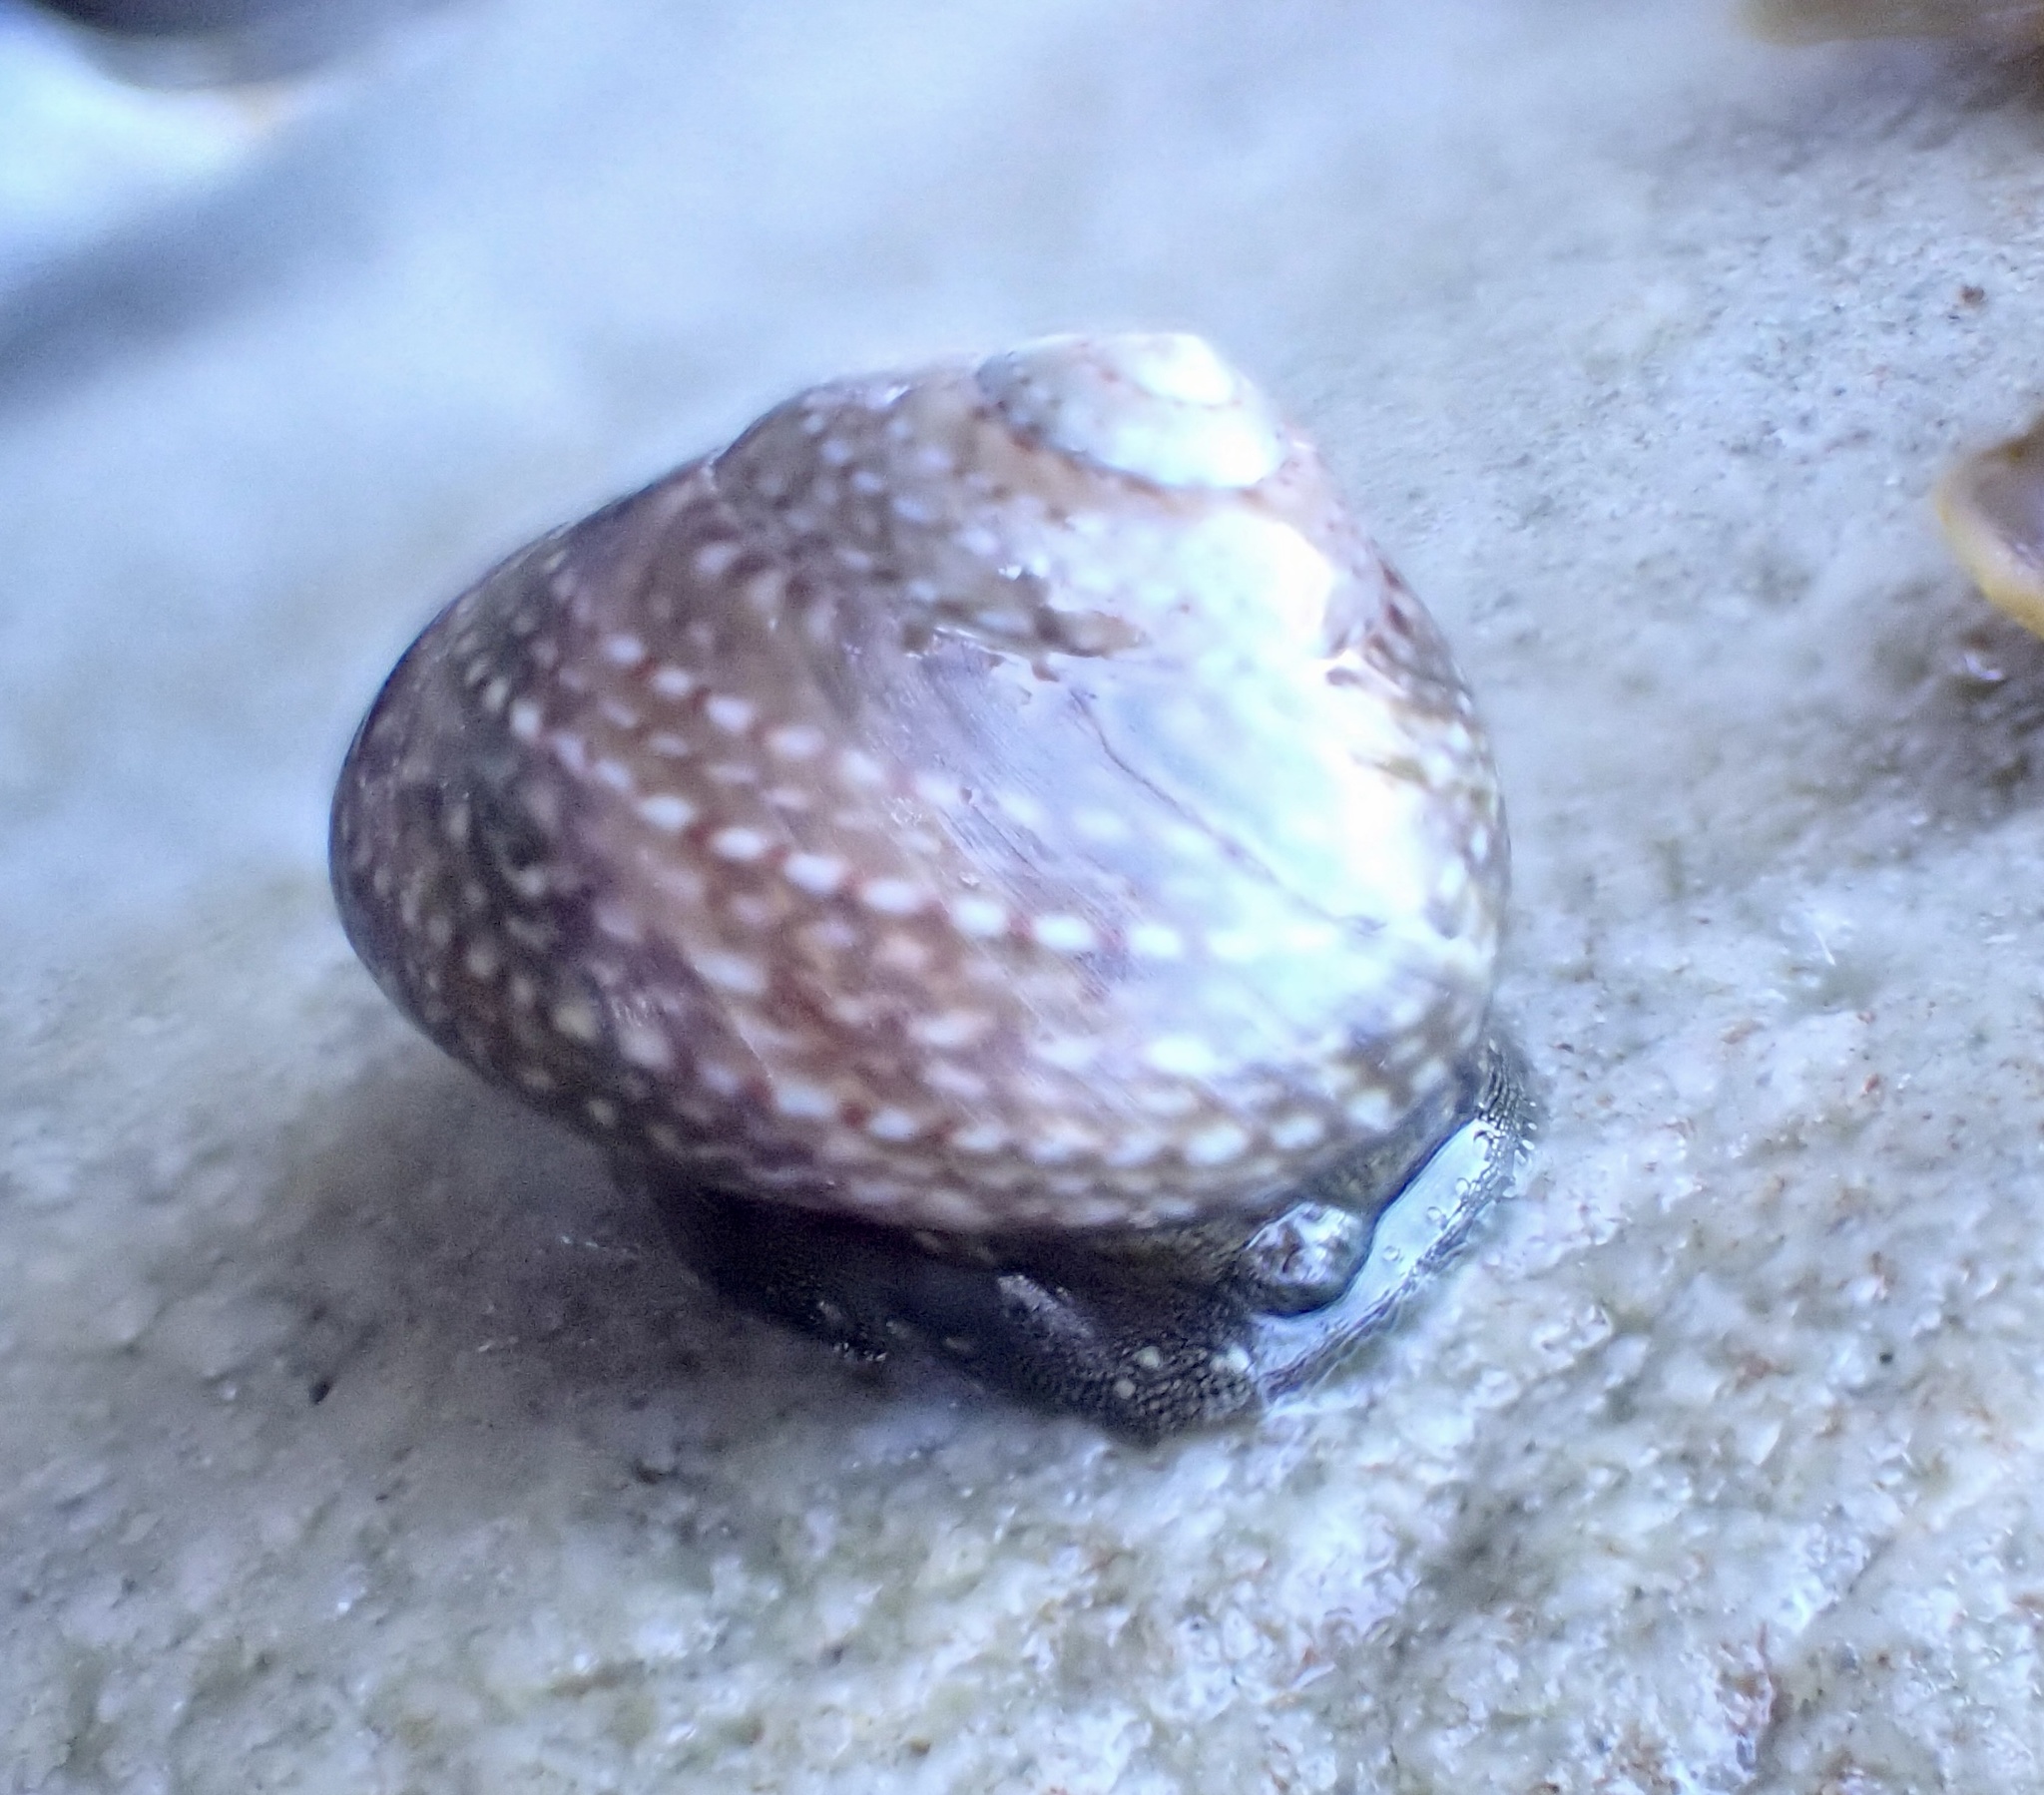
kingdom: Animalia
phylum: Mollusca
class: Gastropoda
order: Trochida
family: Trochidae
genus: Oxystele
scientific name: Oxystele impervia
